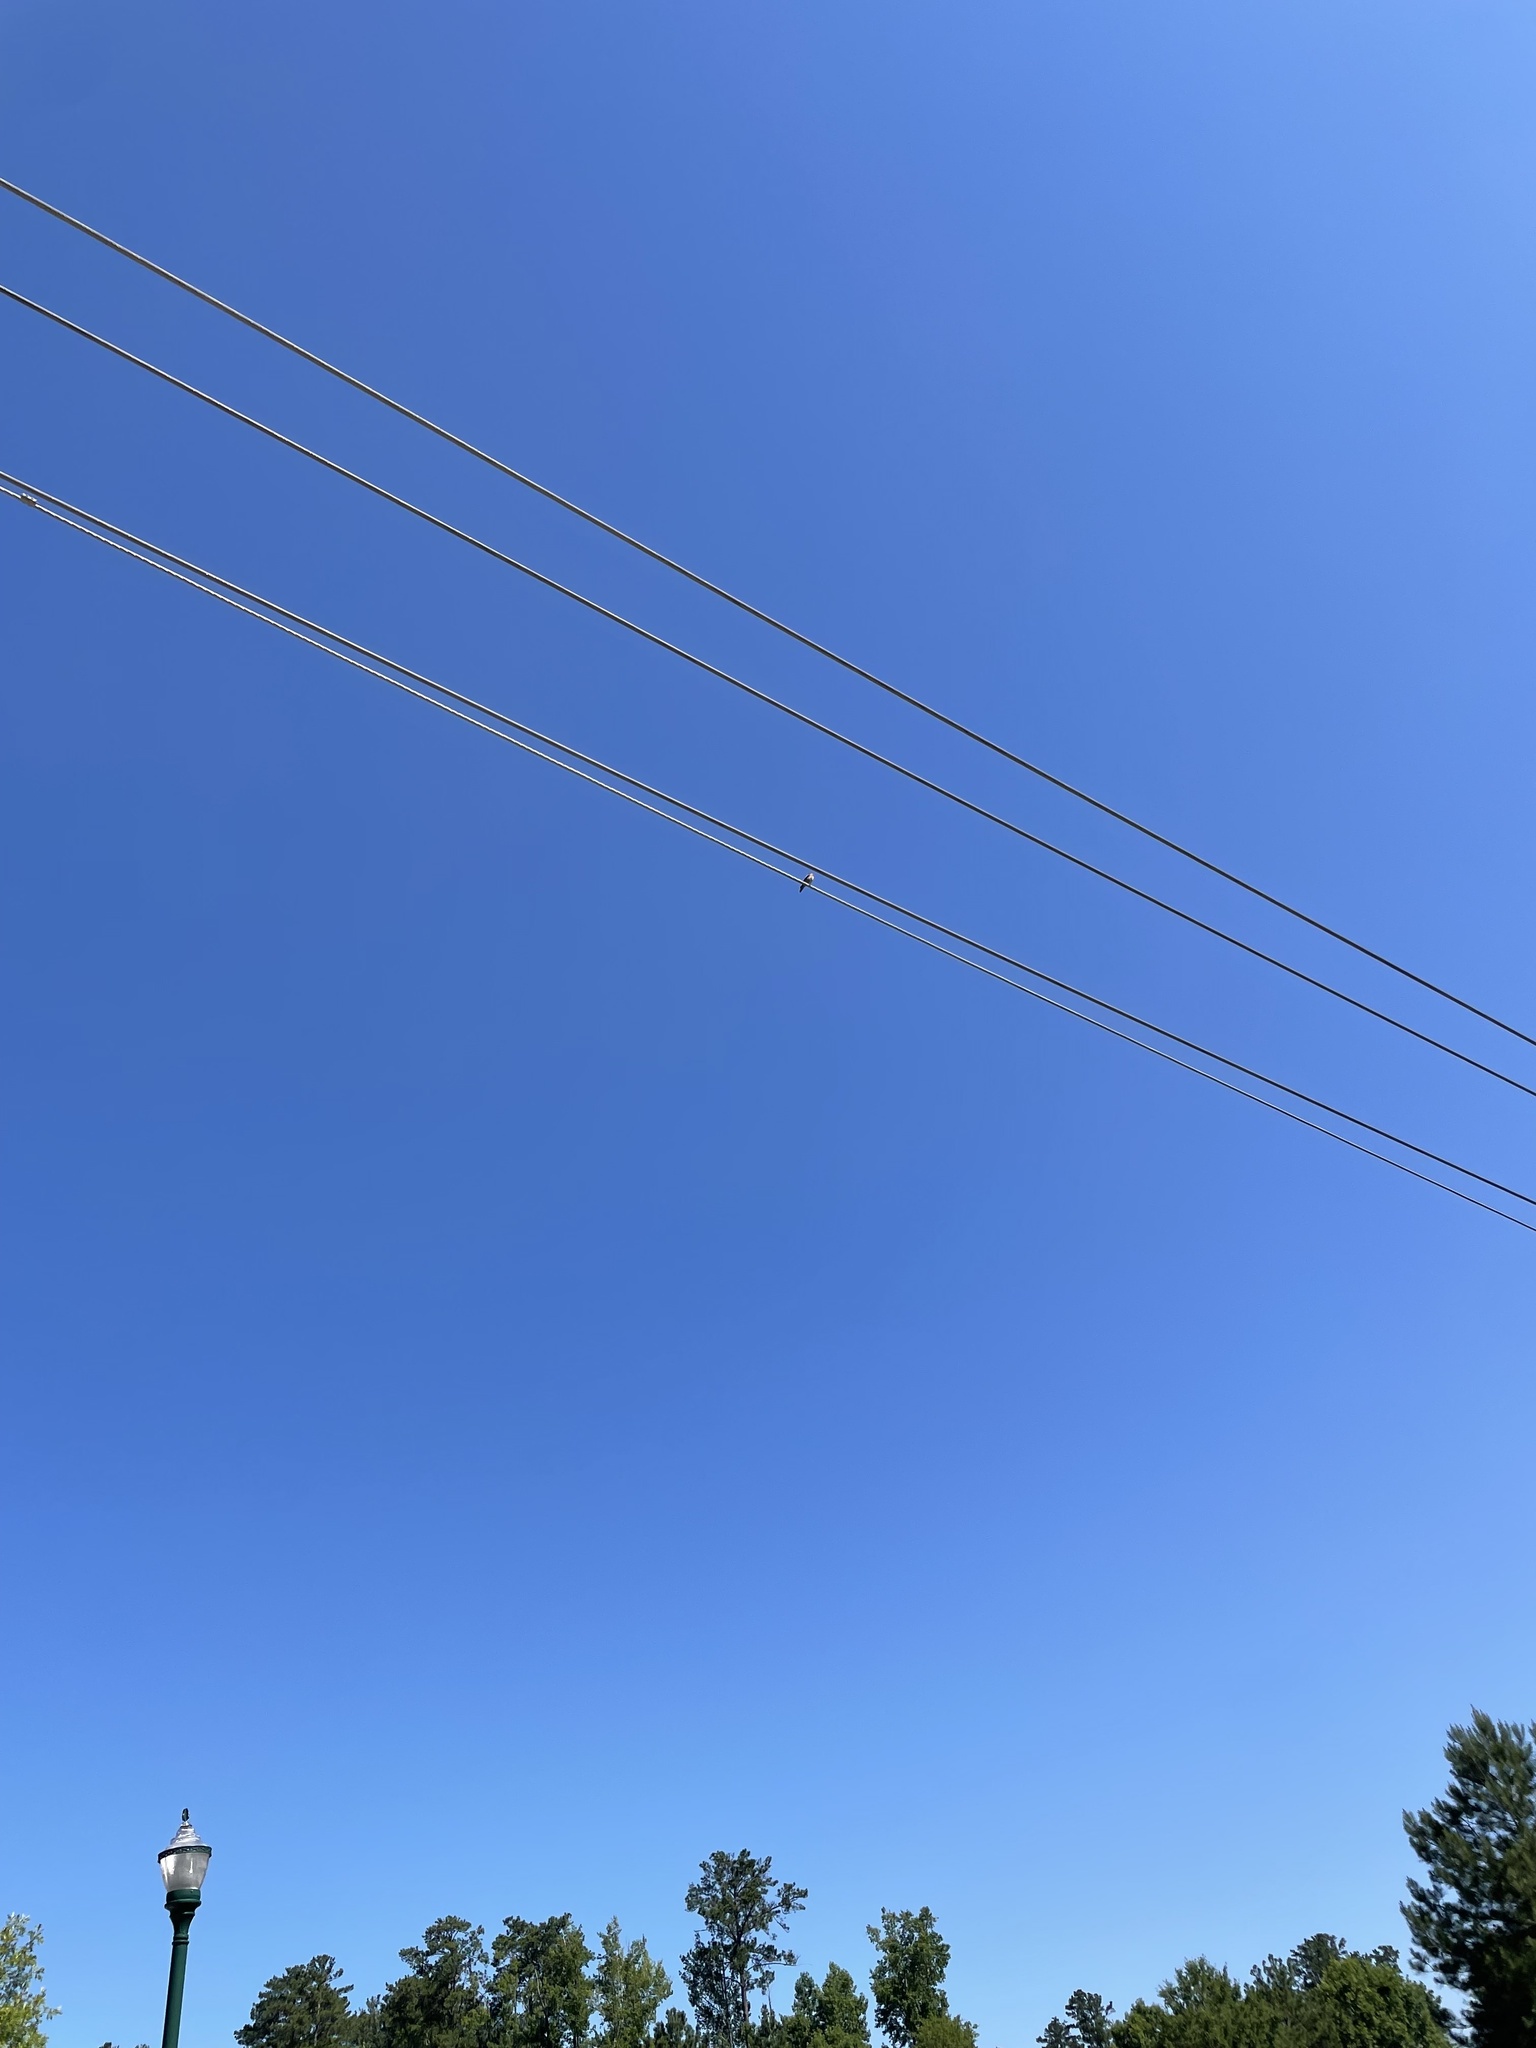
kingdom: Animalia
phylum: Chordata
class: Aves
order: Passeriformes
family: Turdidae
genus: Sialia
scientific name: Sialia sialis
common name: Eastern bluebird
